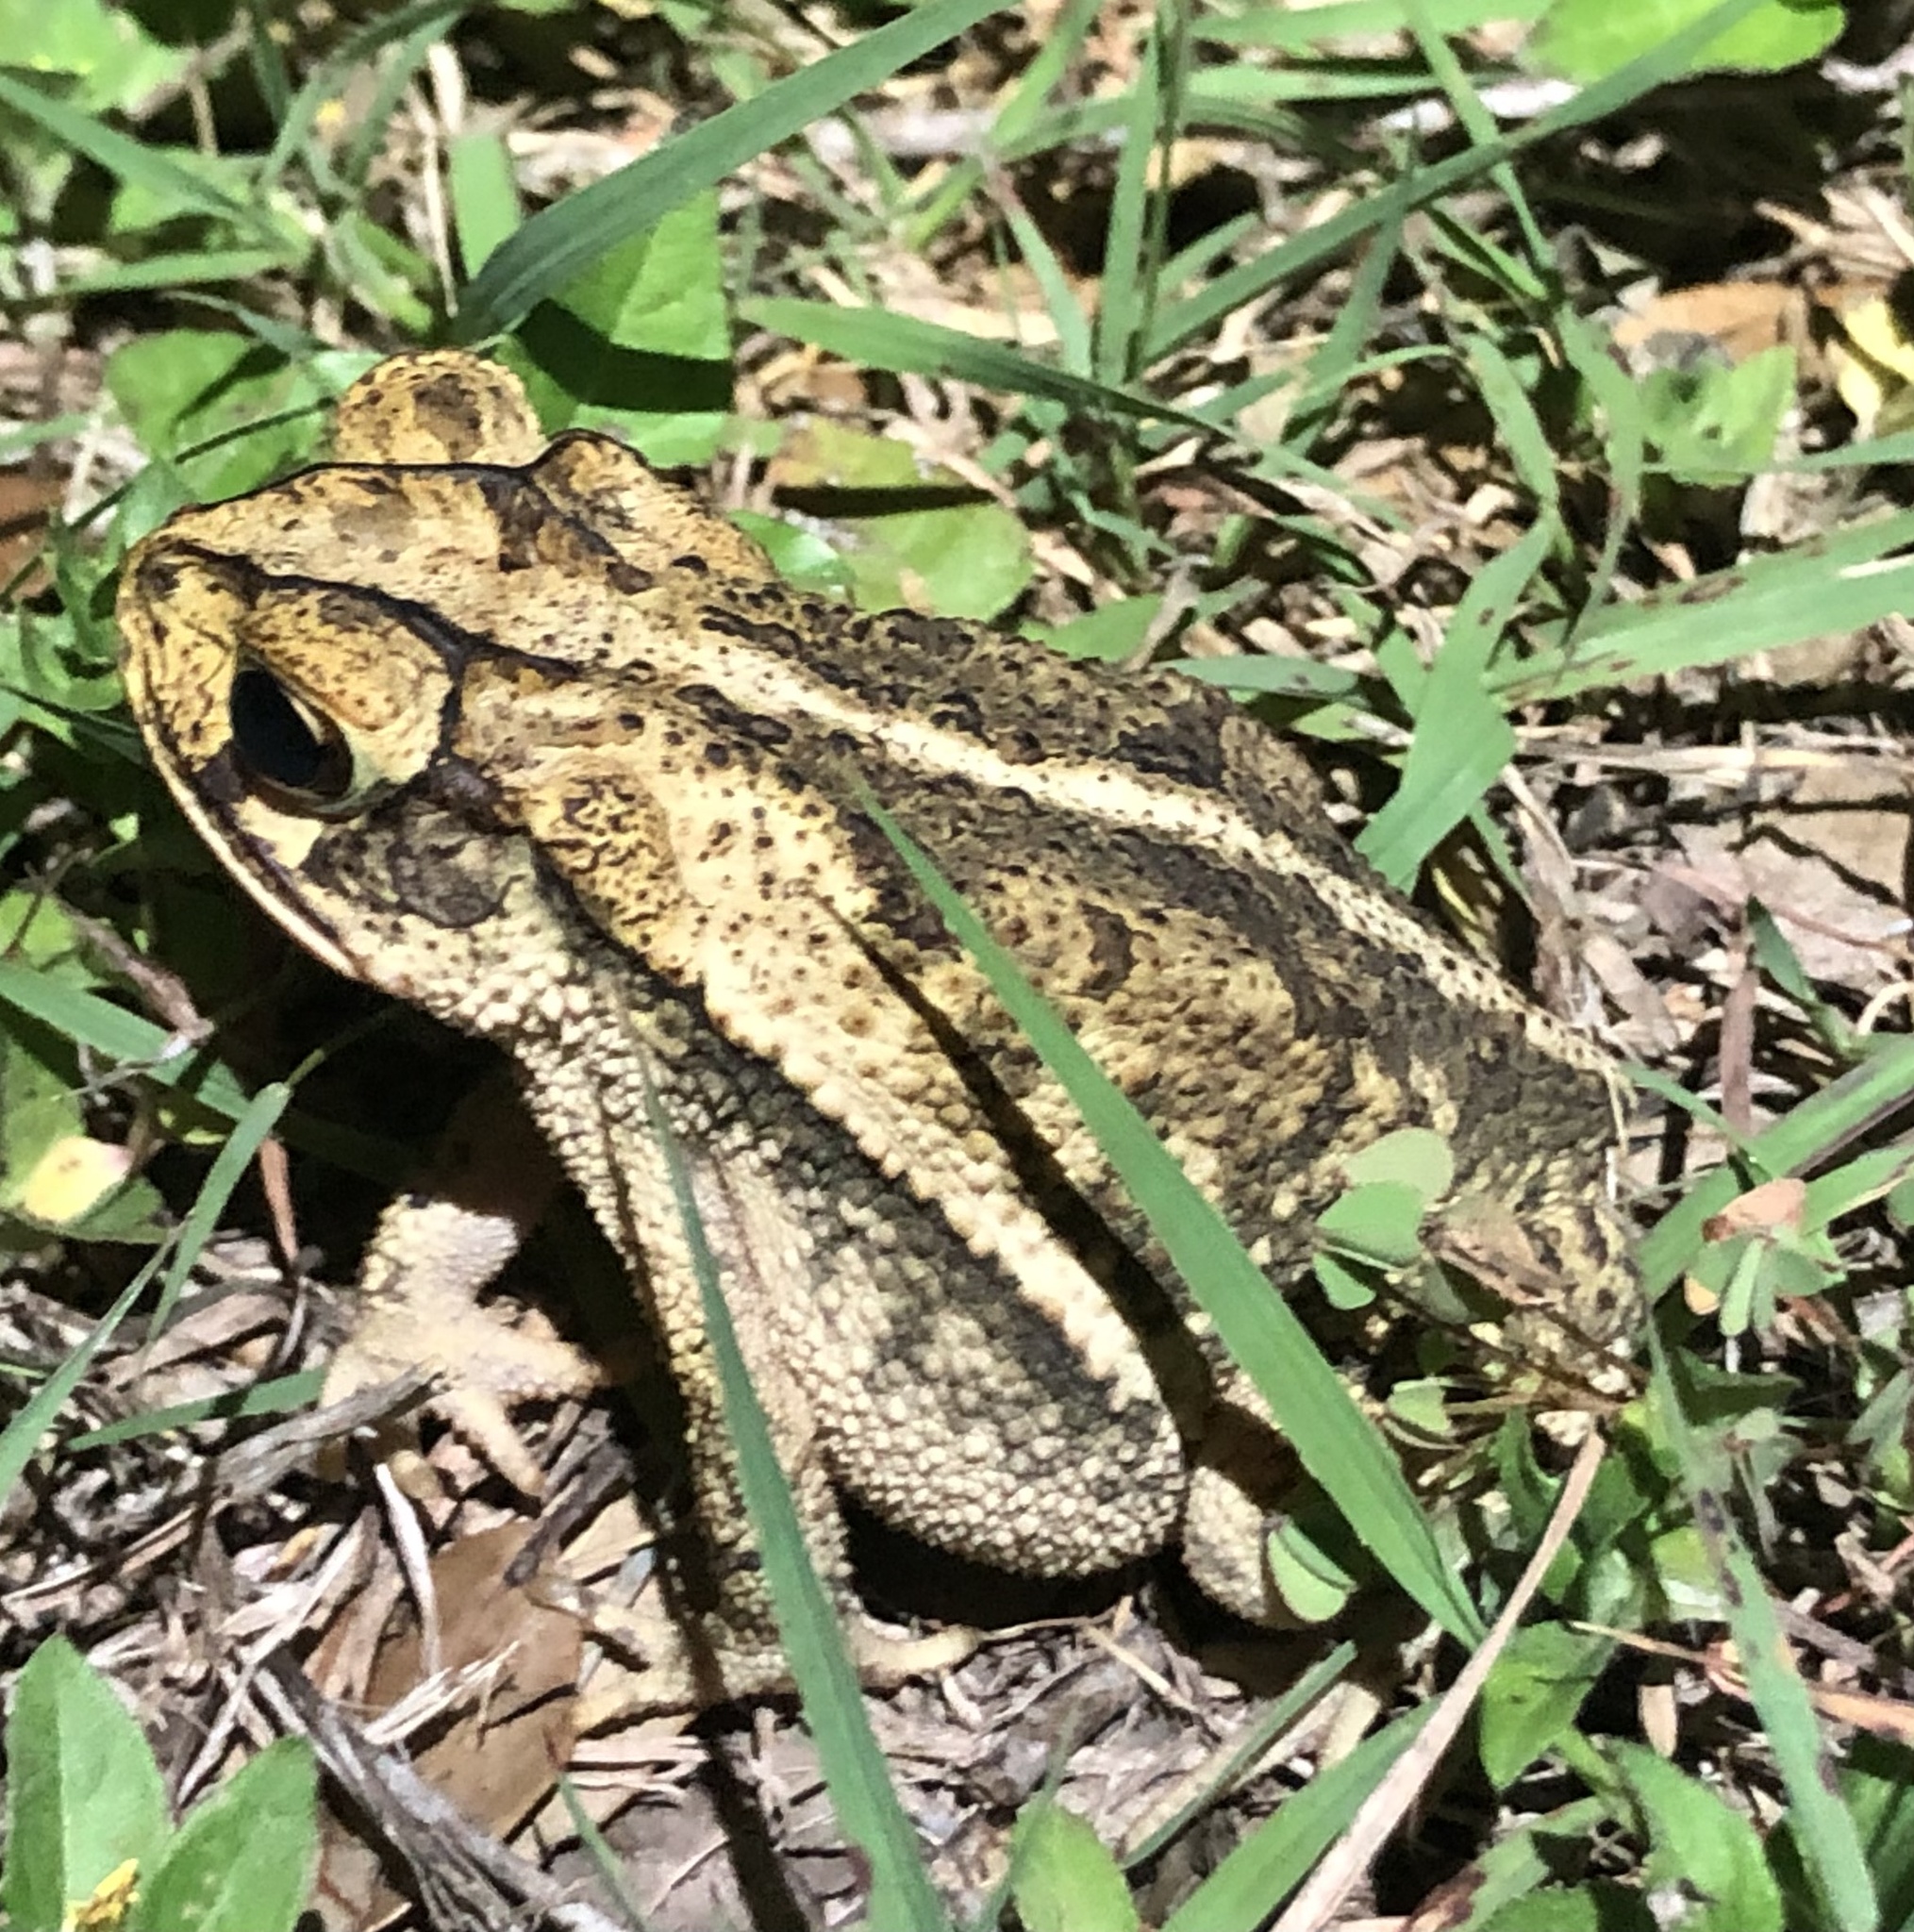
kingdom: Animalia
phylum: Chordata
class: Amphibia
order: Anura
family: Bufonidae
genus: Incilius
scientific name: Incilius nebulifer
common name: Gulf coast toad
